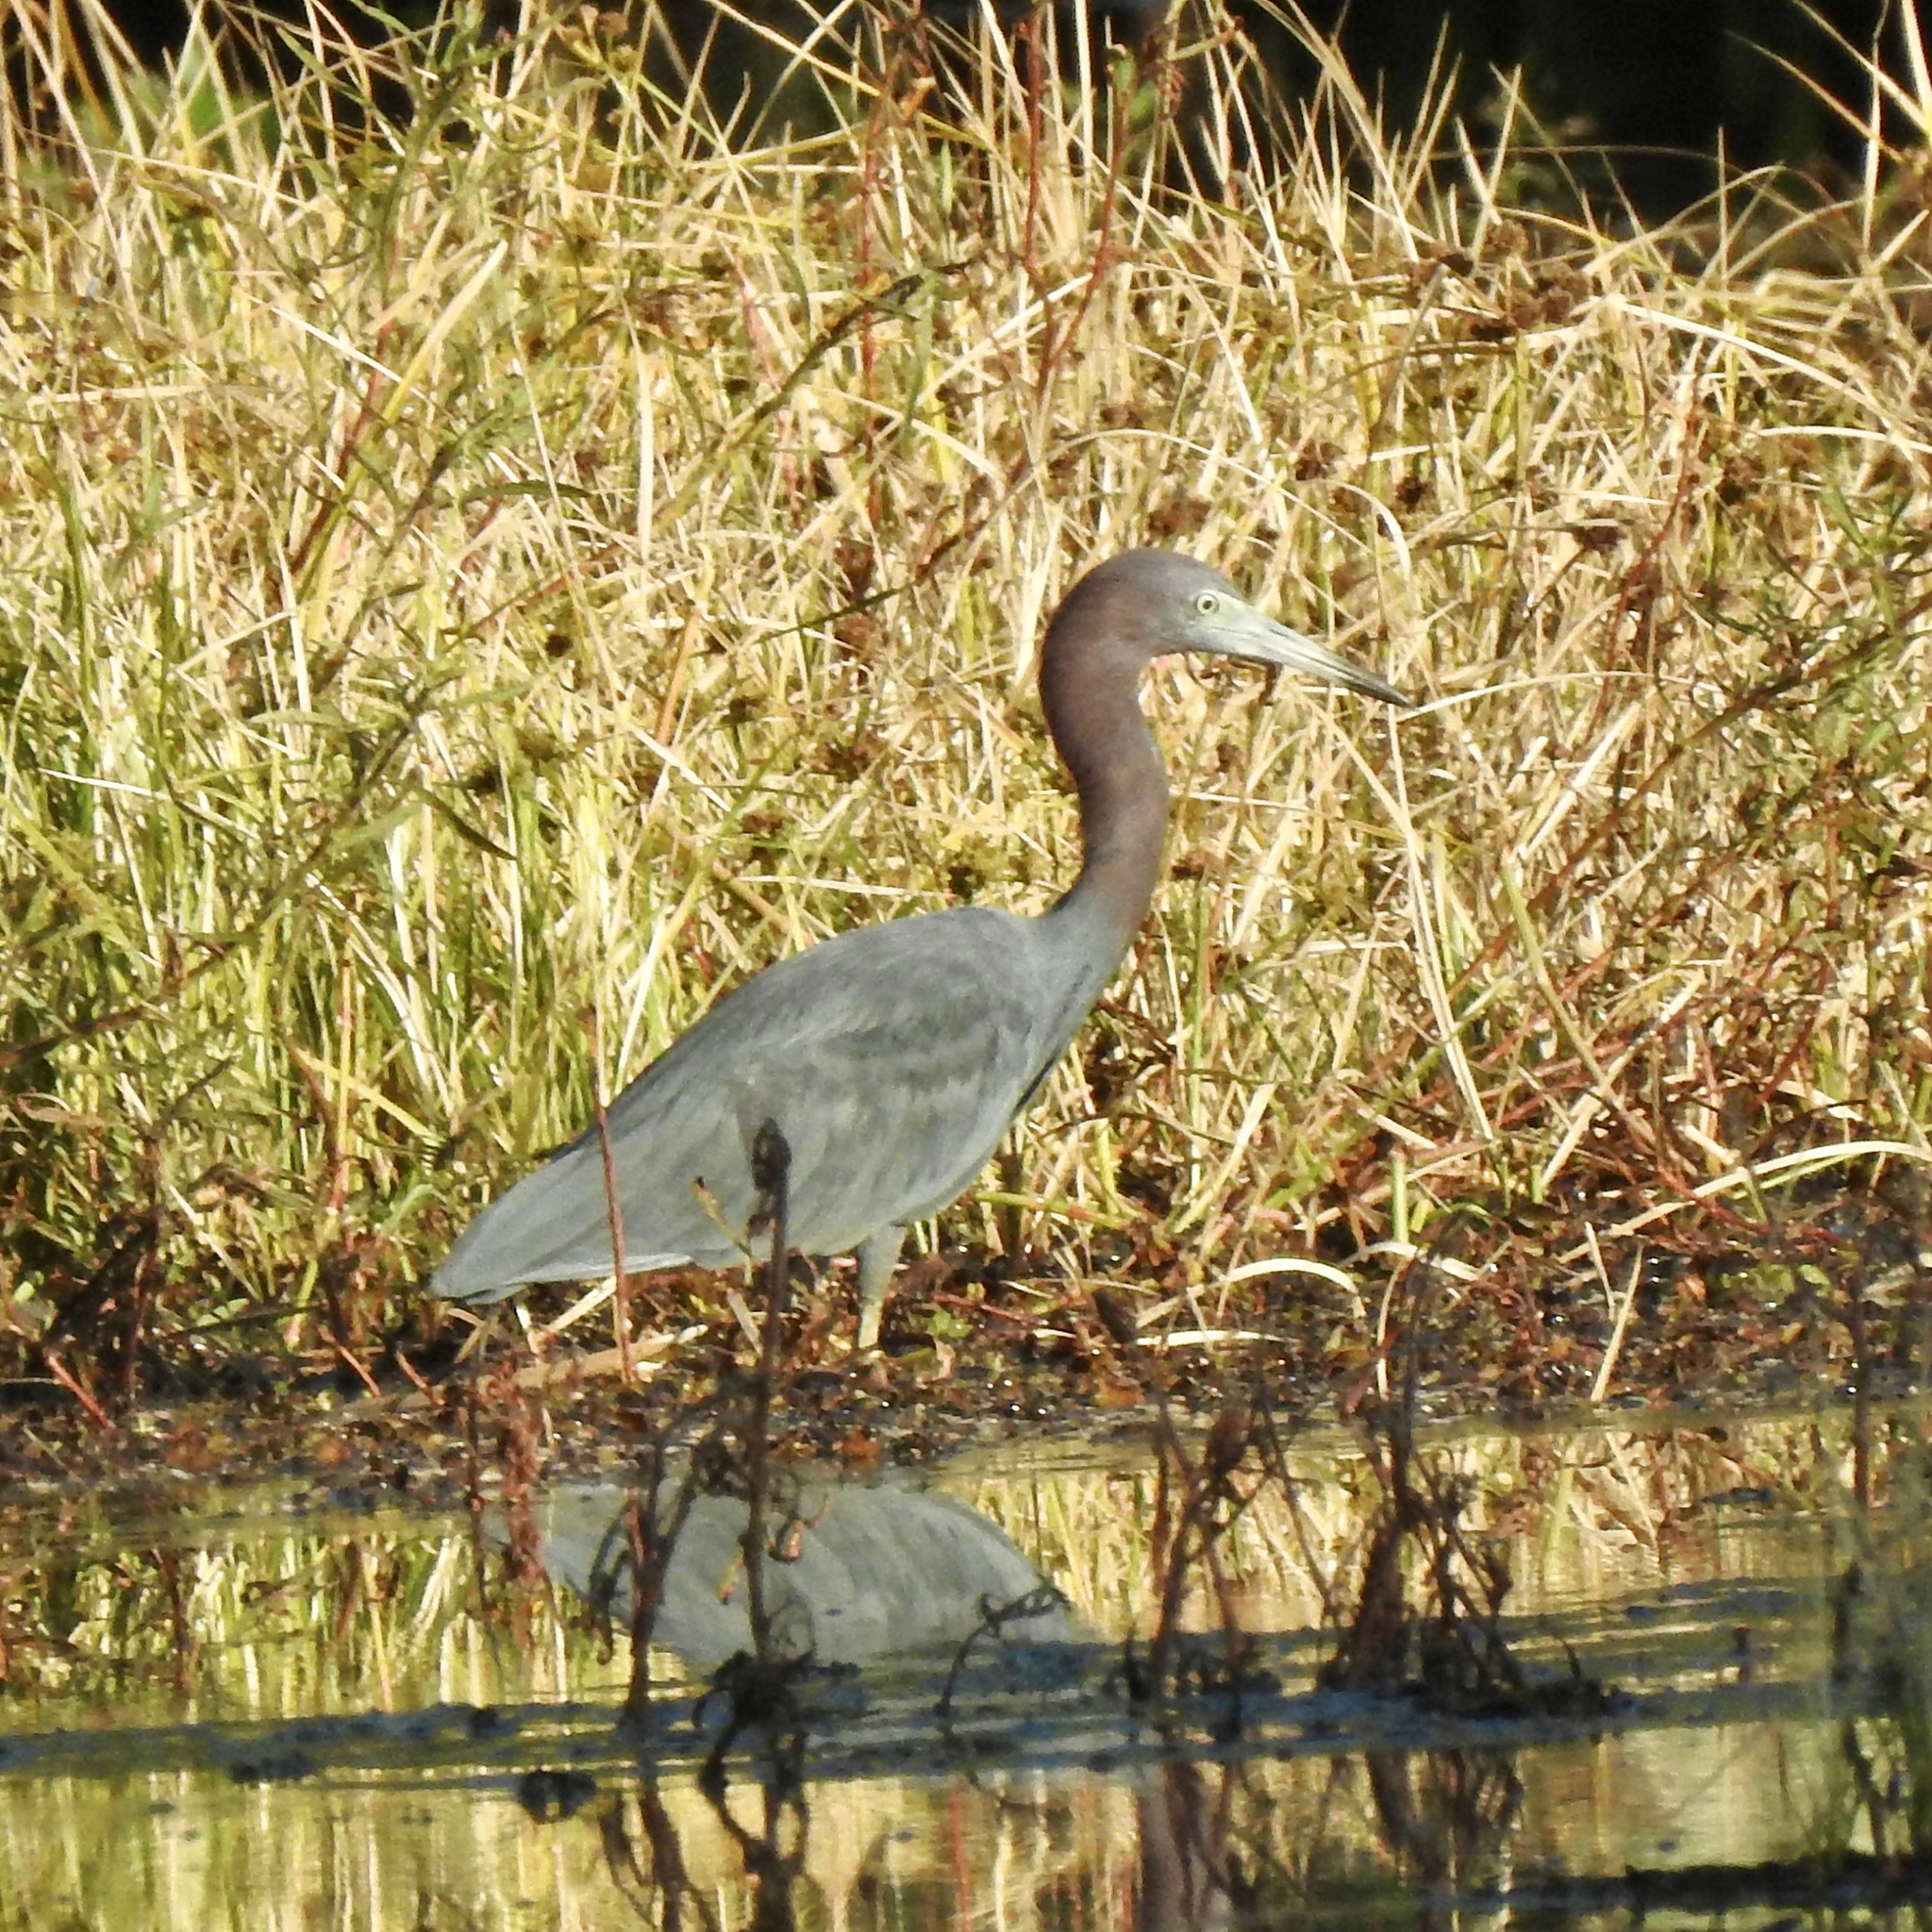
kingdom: Animalia
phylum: Chordata
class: Aves
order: Pelecaniformes
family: Ardeidae
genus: Egretta
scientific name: Egretta caerulea
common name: Little blue heron
